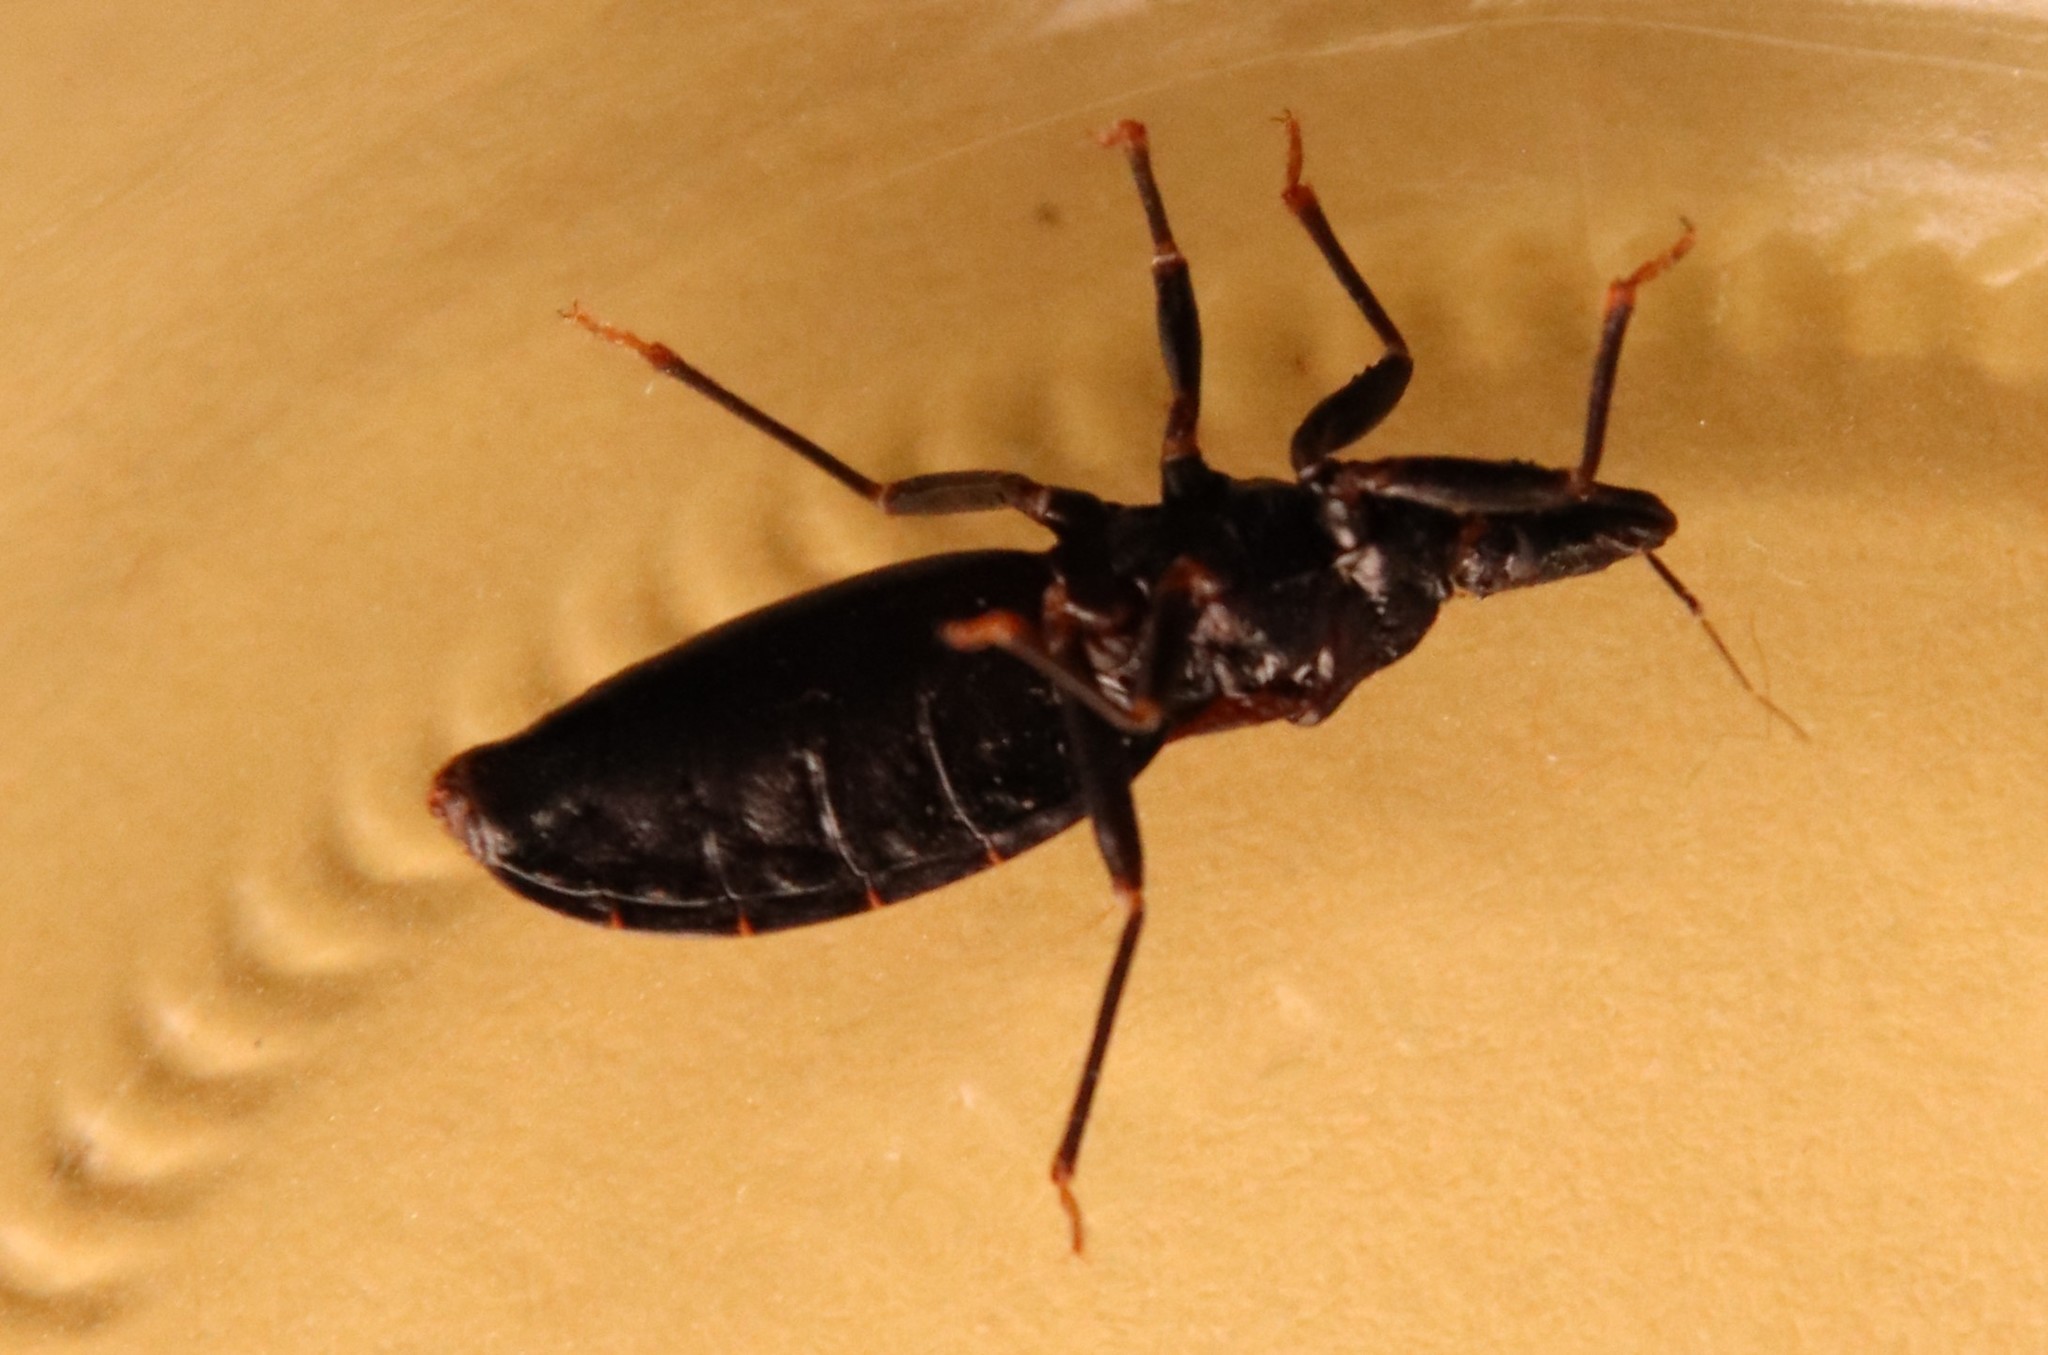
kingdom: Animalia
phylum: Arthropoda
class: Insecta
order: Hemiptera
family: Reduviidae
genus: Triatoma
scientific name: Triatoma protracta
